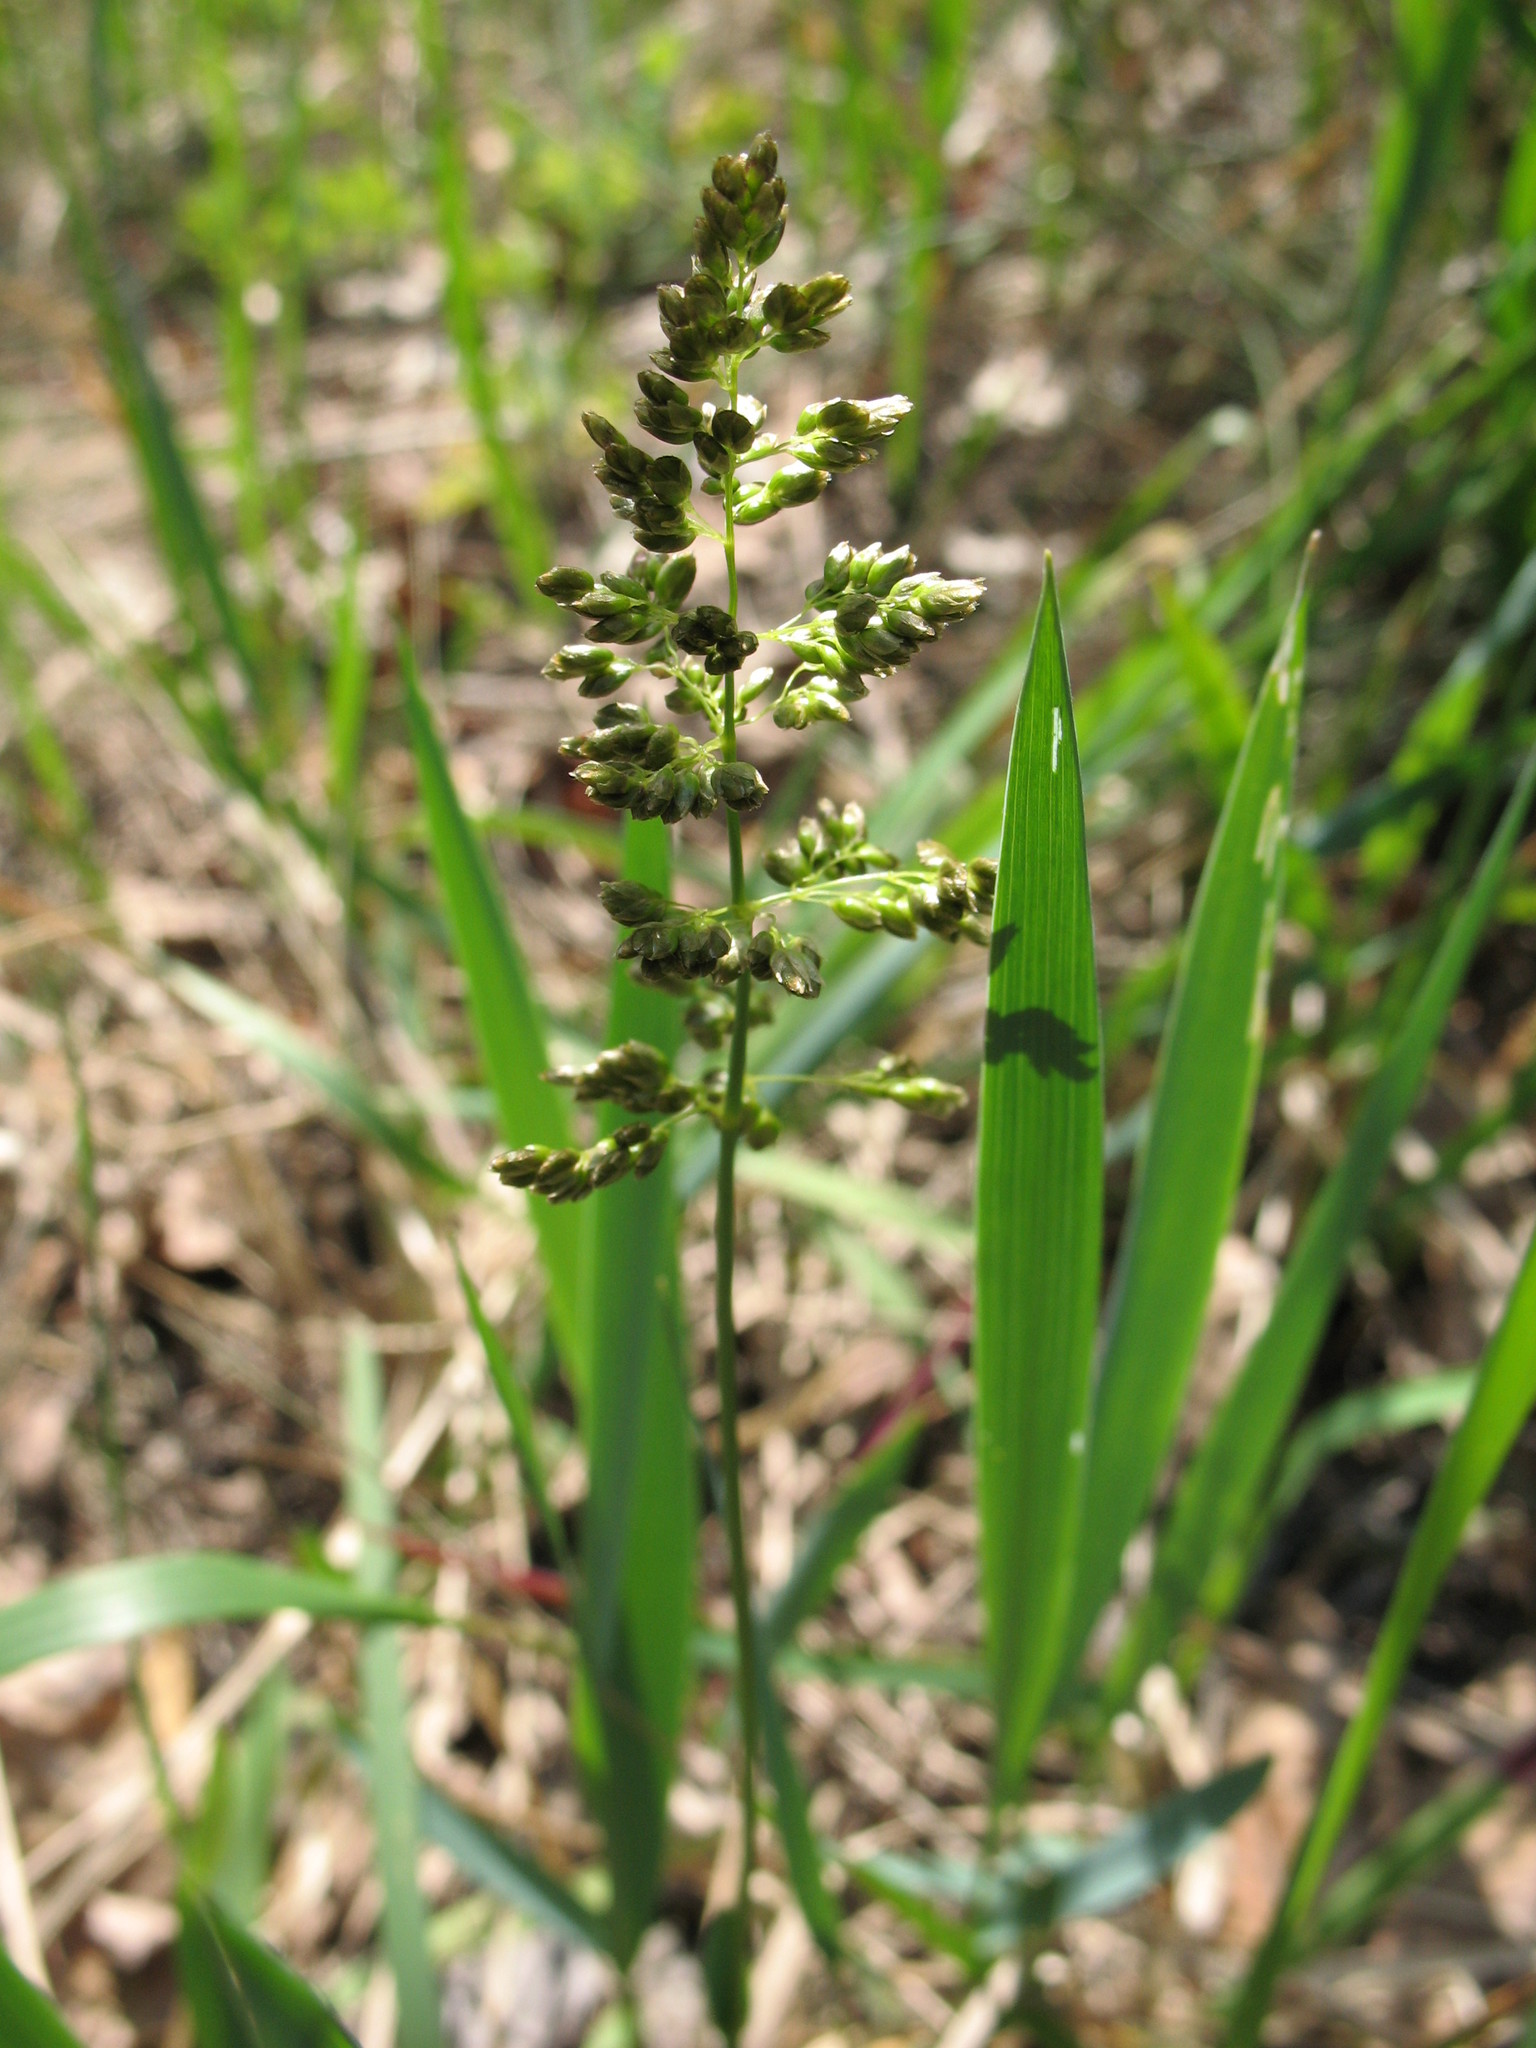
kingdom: Plantae
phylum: Tracheophyta
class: Liliopsida
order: Poales
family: Poaceae
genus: Anthoxanthum
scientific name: Anthoxanthum repens
